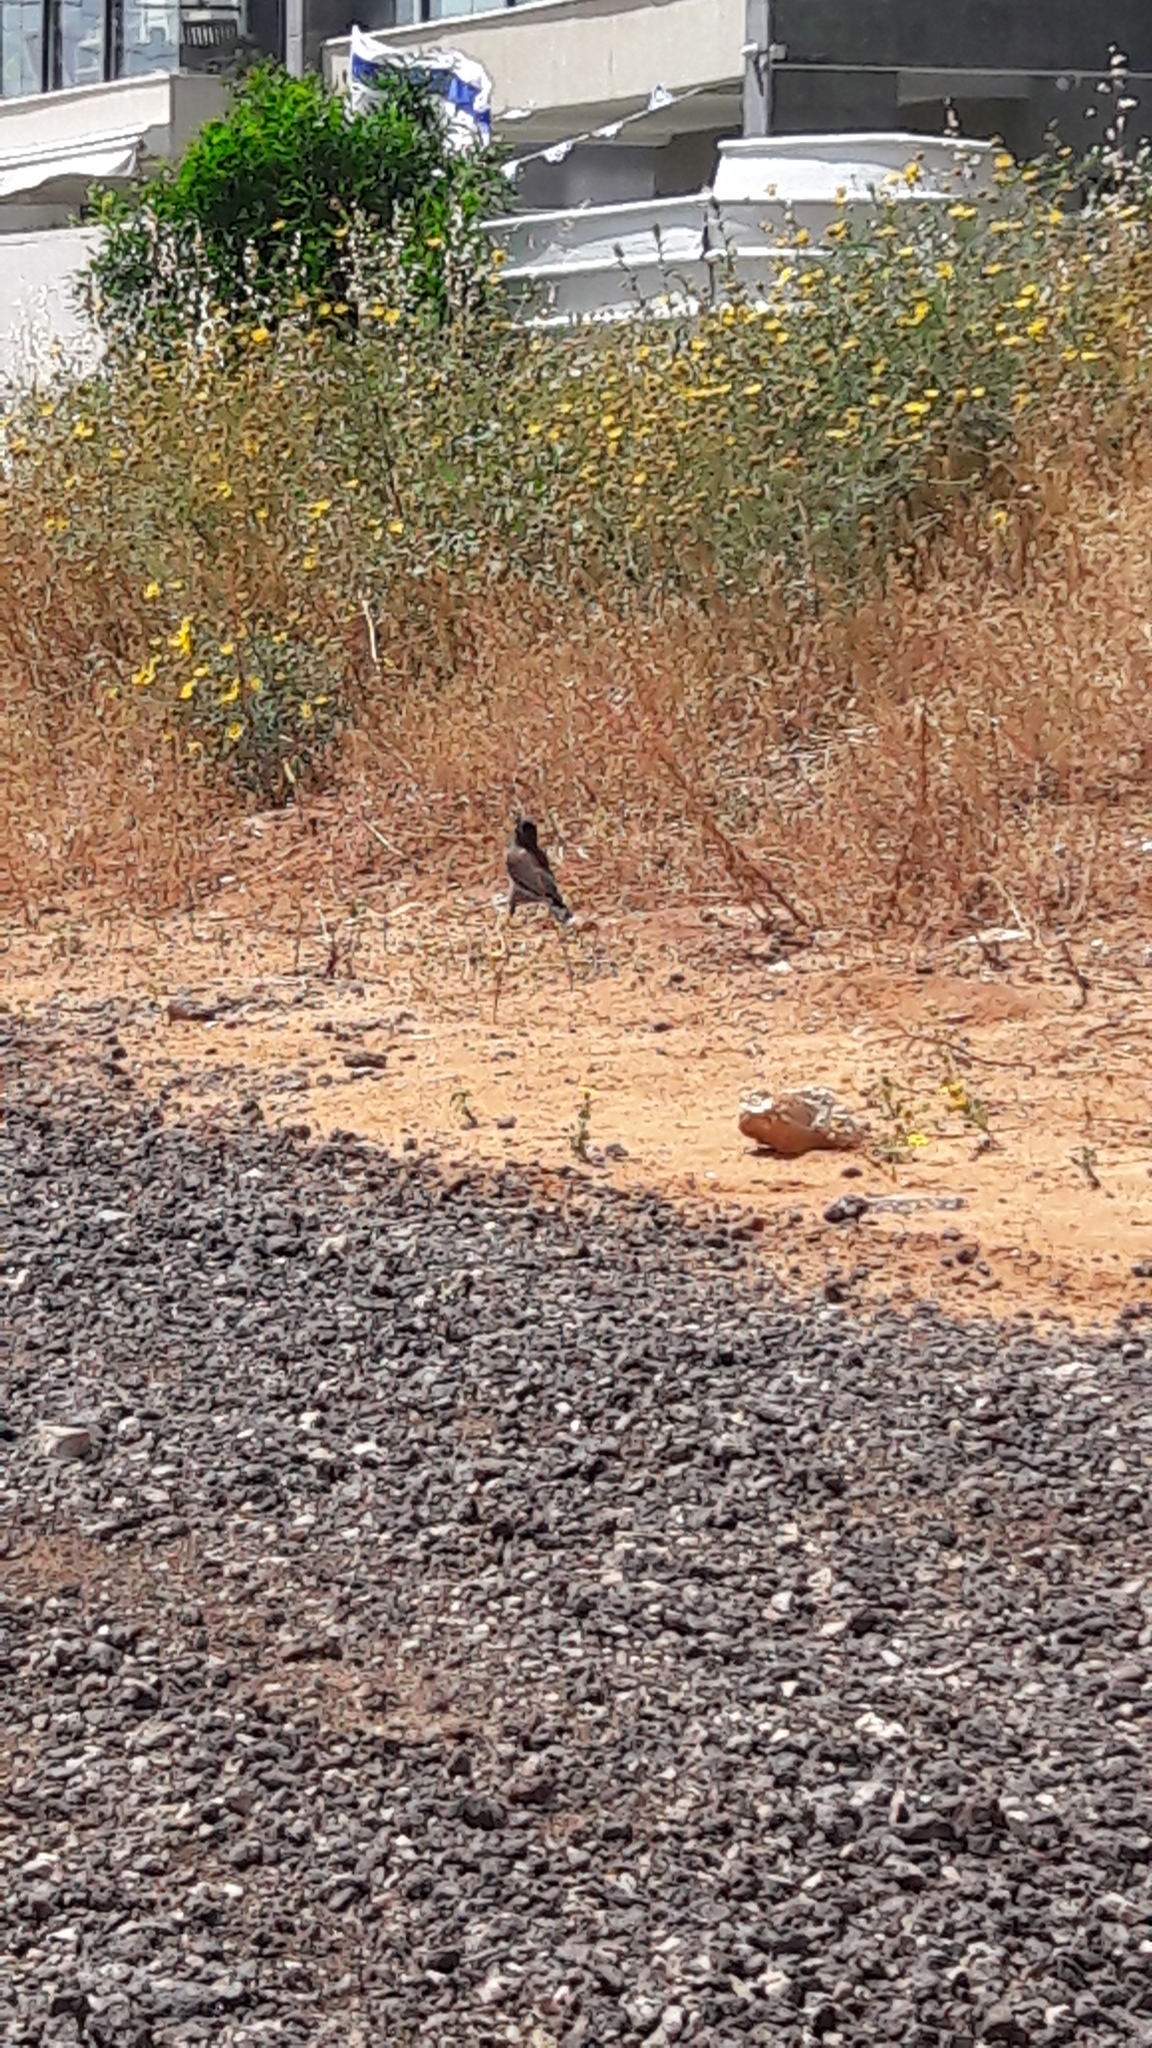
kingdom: Animalia
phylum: Chordata
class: Aves
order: Passeriformes
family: Sturnidae
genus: Acridotheres
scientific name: Acridotheres tristis
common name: Common myna
